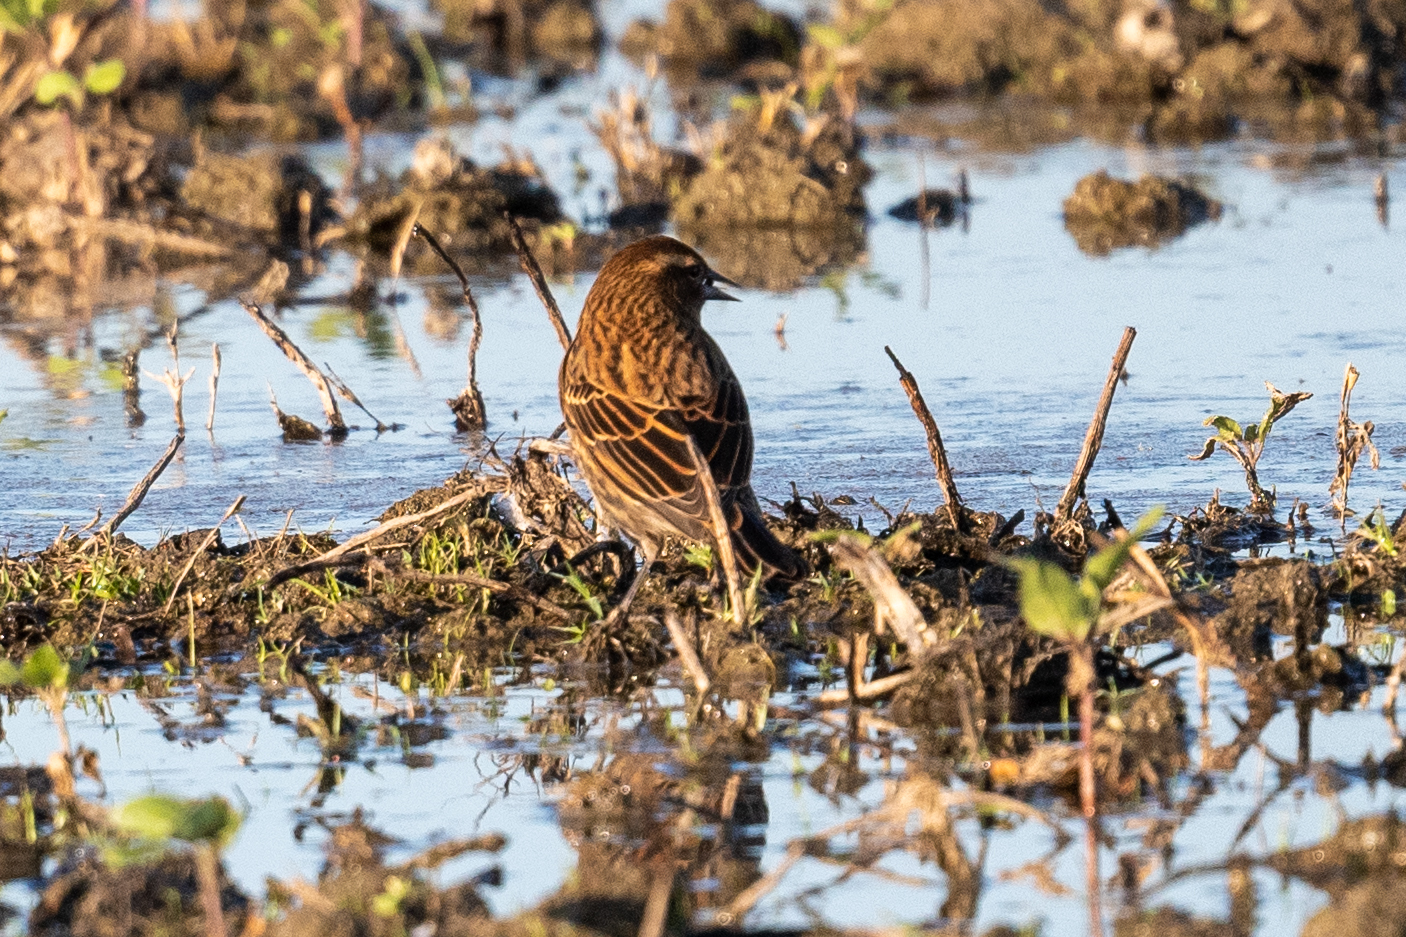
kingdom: Animalia
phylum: Chordata
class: Aves
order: Passeriformes
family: Icteridae
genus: Agelaius
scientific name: Agelaius phoeniceus
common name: Red-winged blackbird
